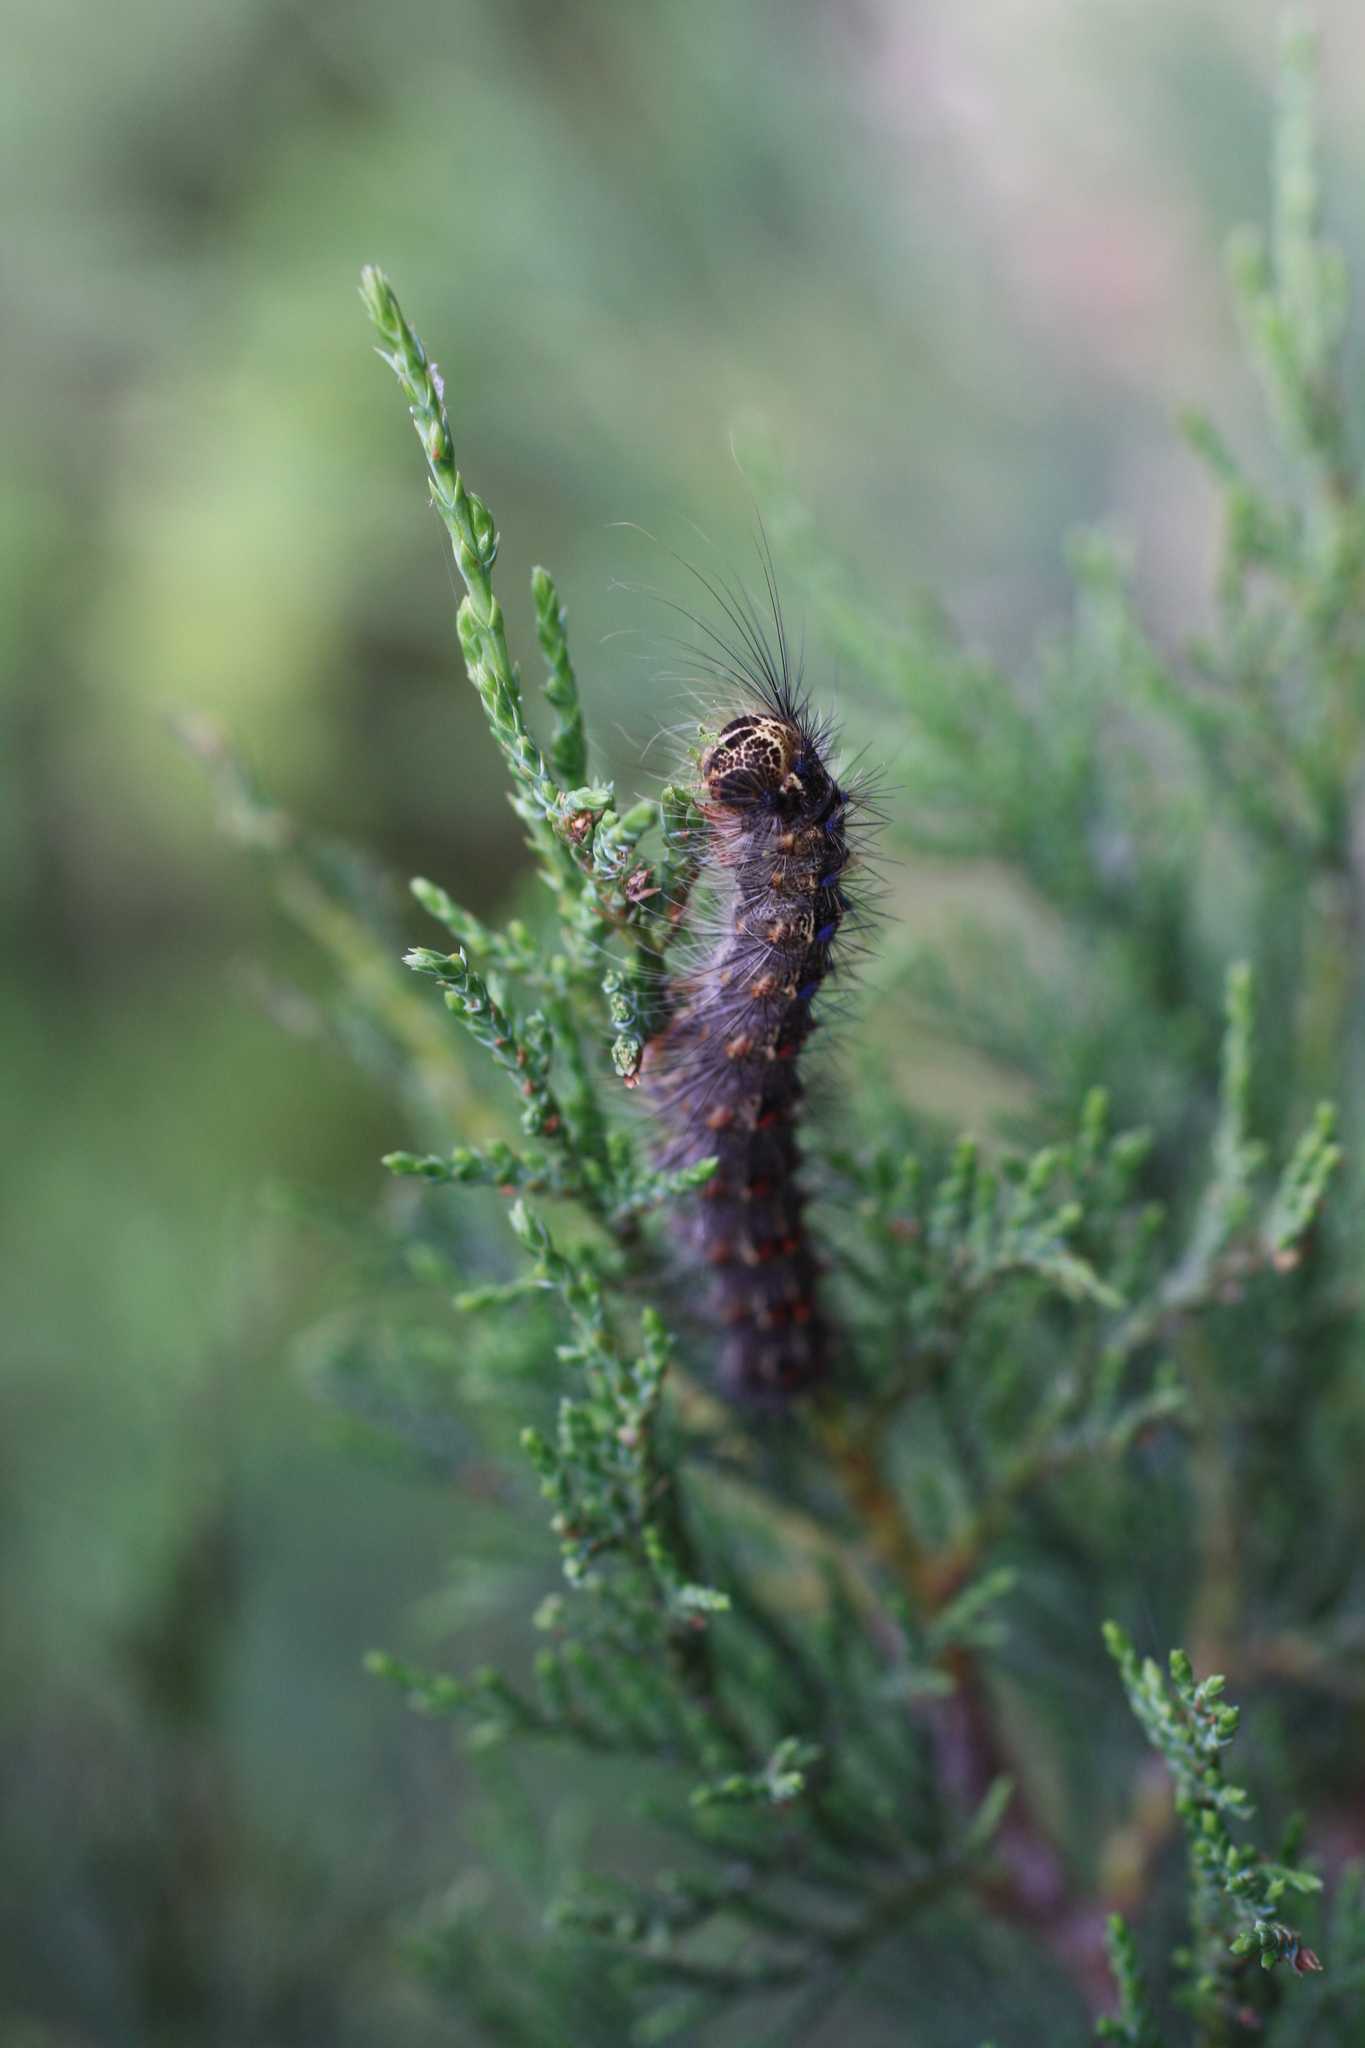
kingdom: Animalia
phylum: Arthropoda
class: Insecta
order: Lepidoptera
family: Erebidae
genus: Lymantria
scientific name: Lymantria dispar
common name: Gypsy moth
